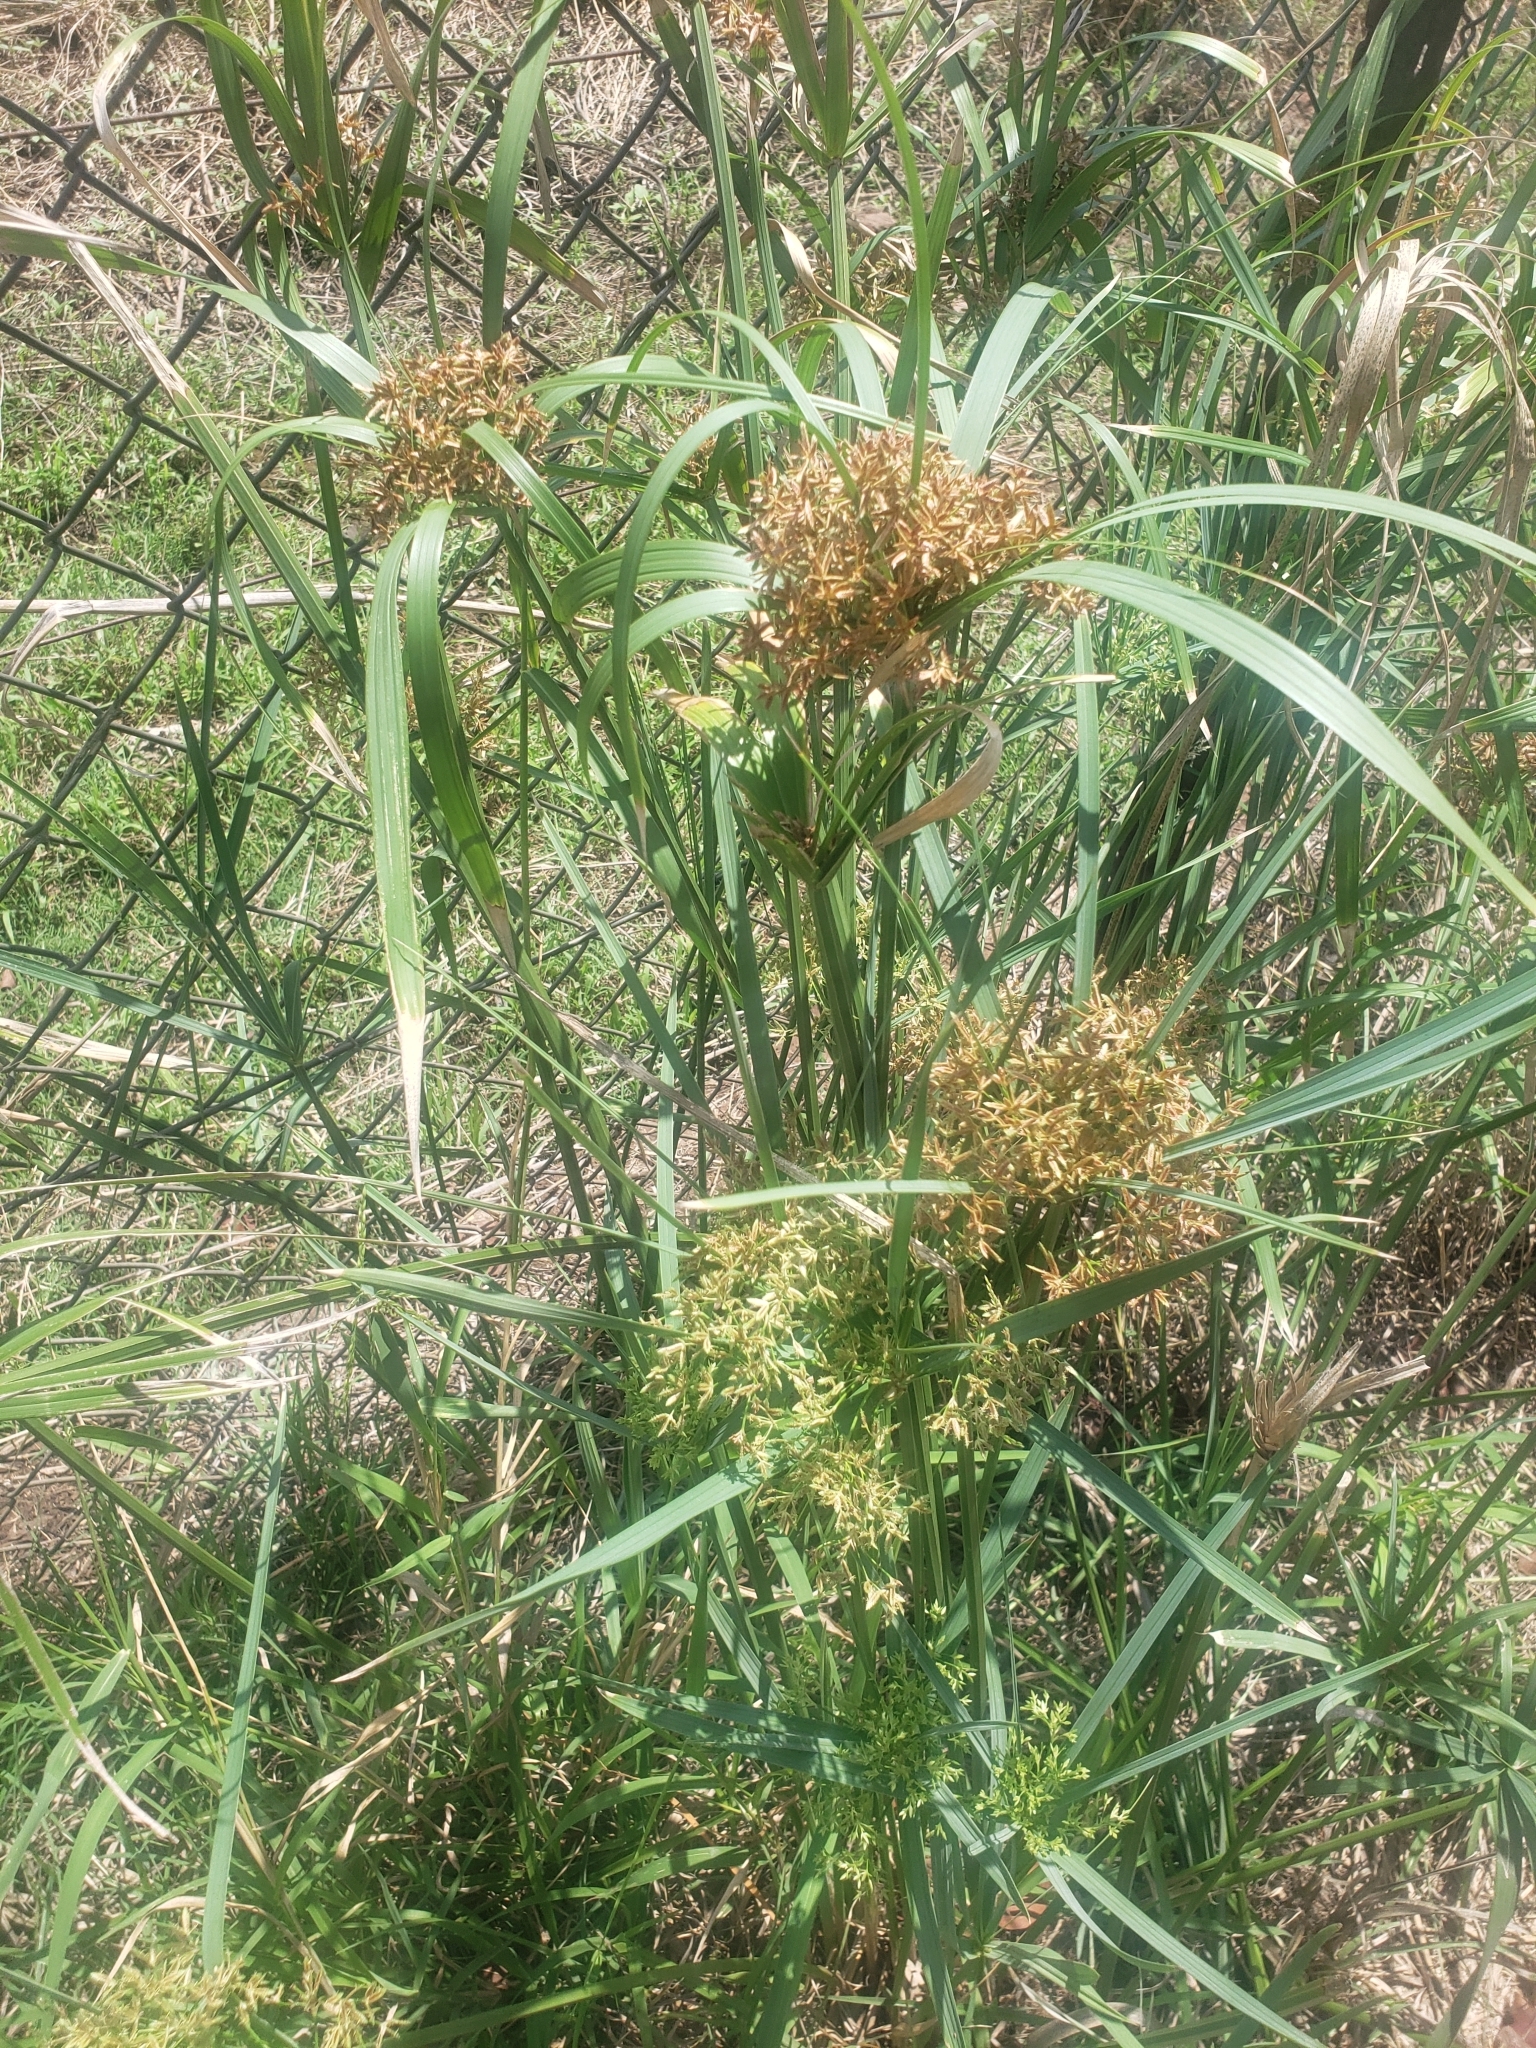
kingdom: Plantae
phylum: Tracheophyta
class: Liliopsida
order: Poales
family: Cyperaceae
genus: Cyperus
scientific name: Cyperus sexangularis
